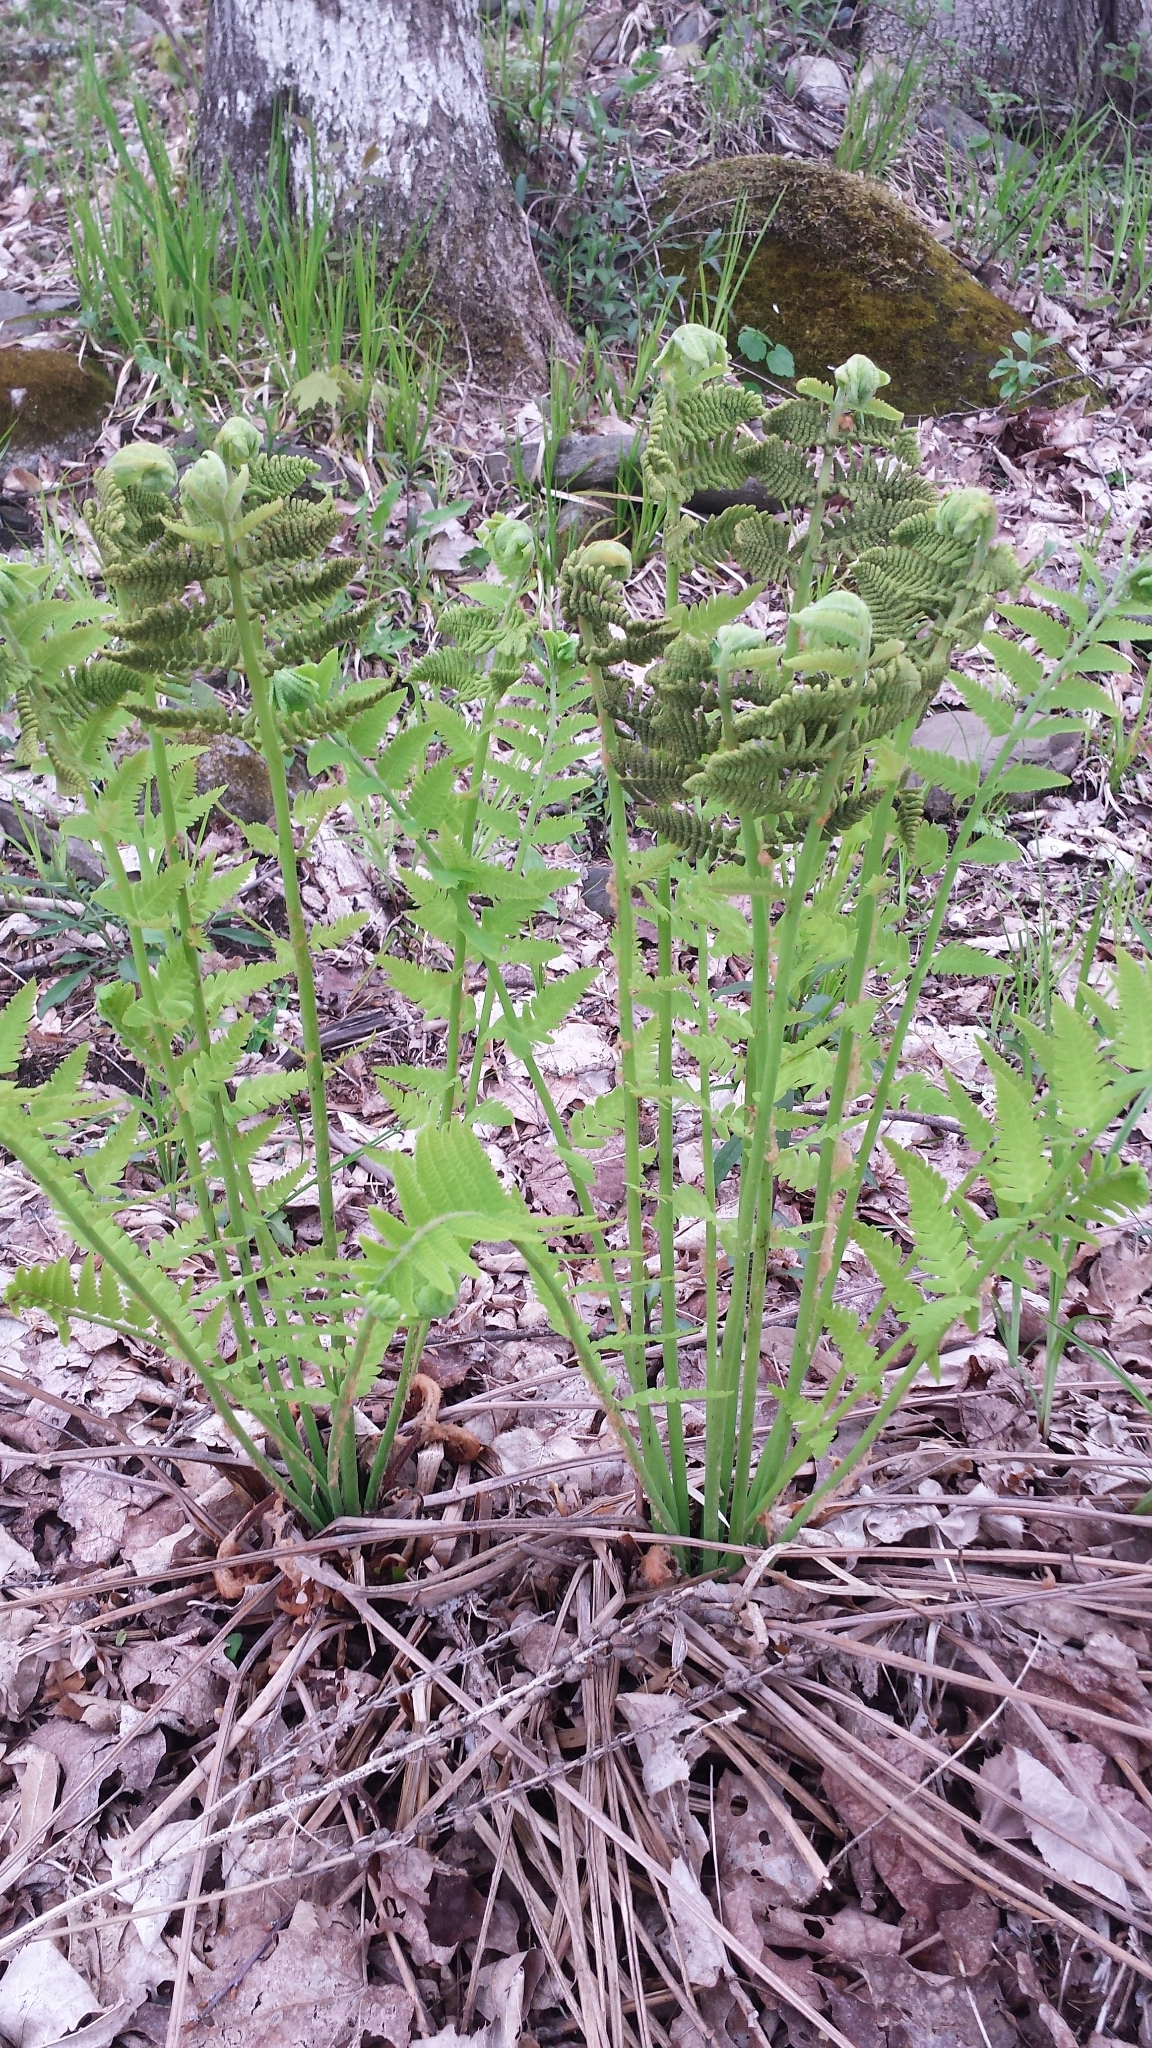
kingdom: Plantae
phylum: Tracheophyta
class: Polypodiopsida
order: Osmundales
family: Osmundaceae
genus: Claytosmunda
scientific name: Claytosmunda claytoniana
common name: Clayton's fern
